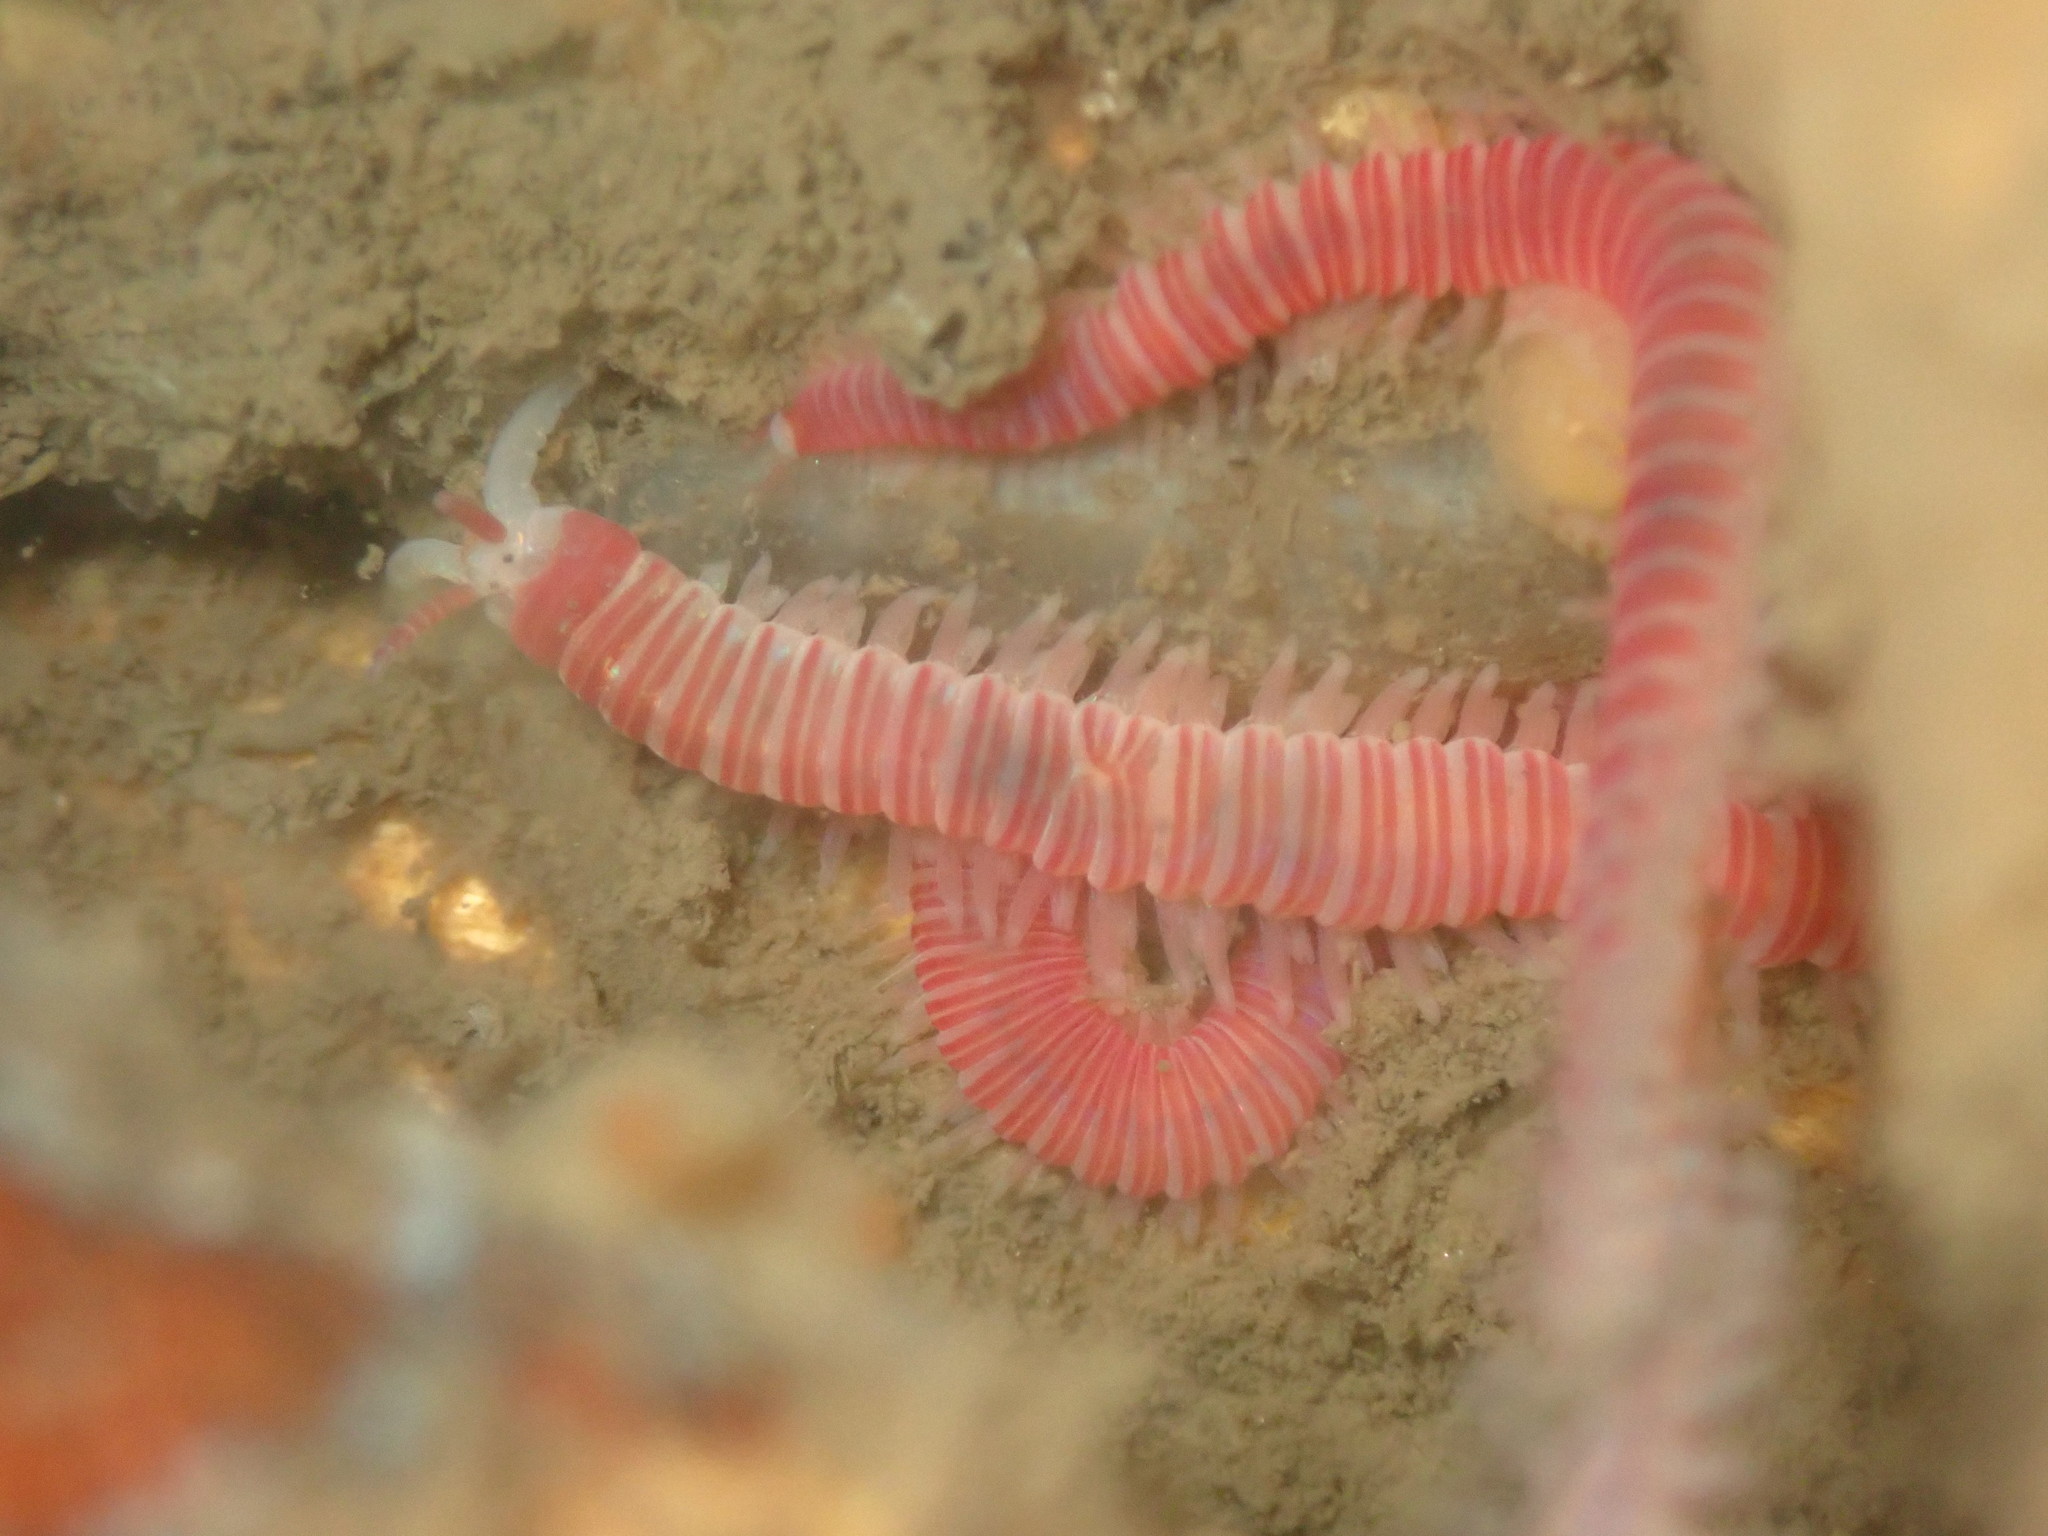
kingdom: Animalia
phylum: Annelida
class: Polychaeta
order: Eunicida
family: Dorvilleidae
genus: Dorvillea
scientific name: Dorvillea moniloceras
